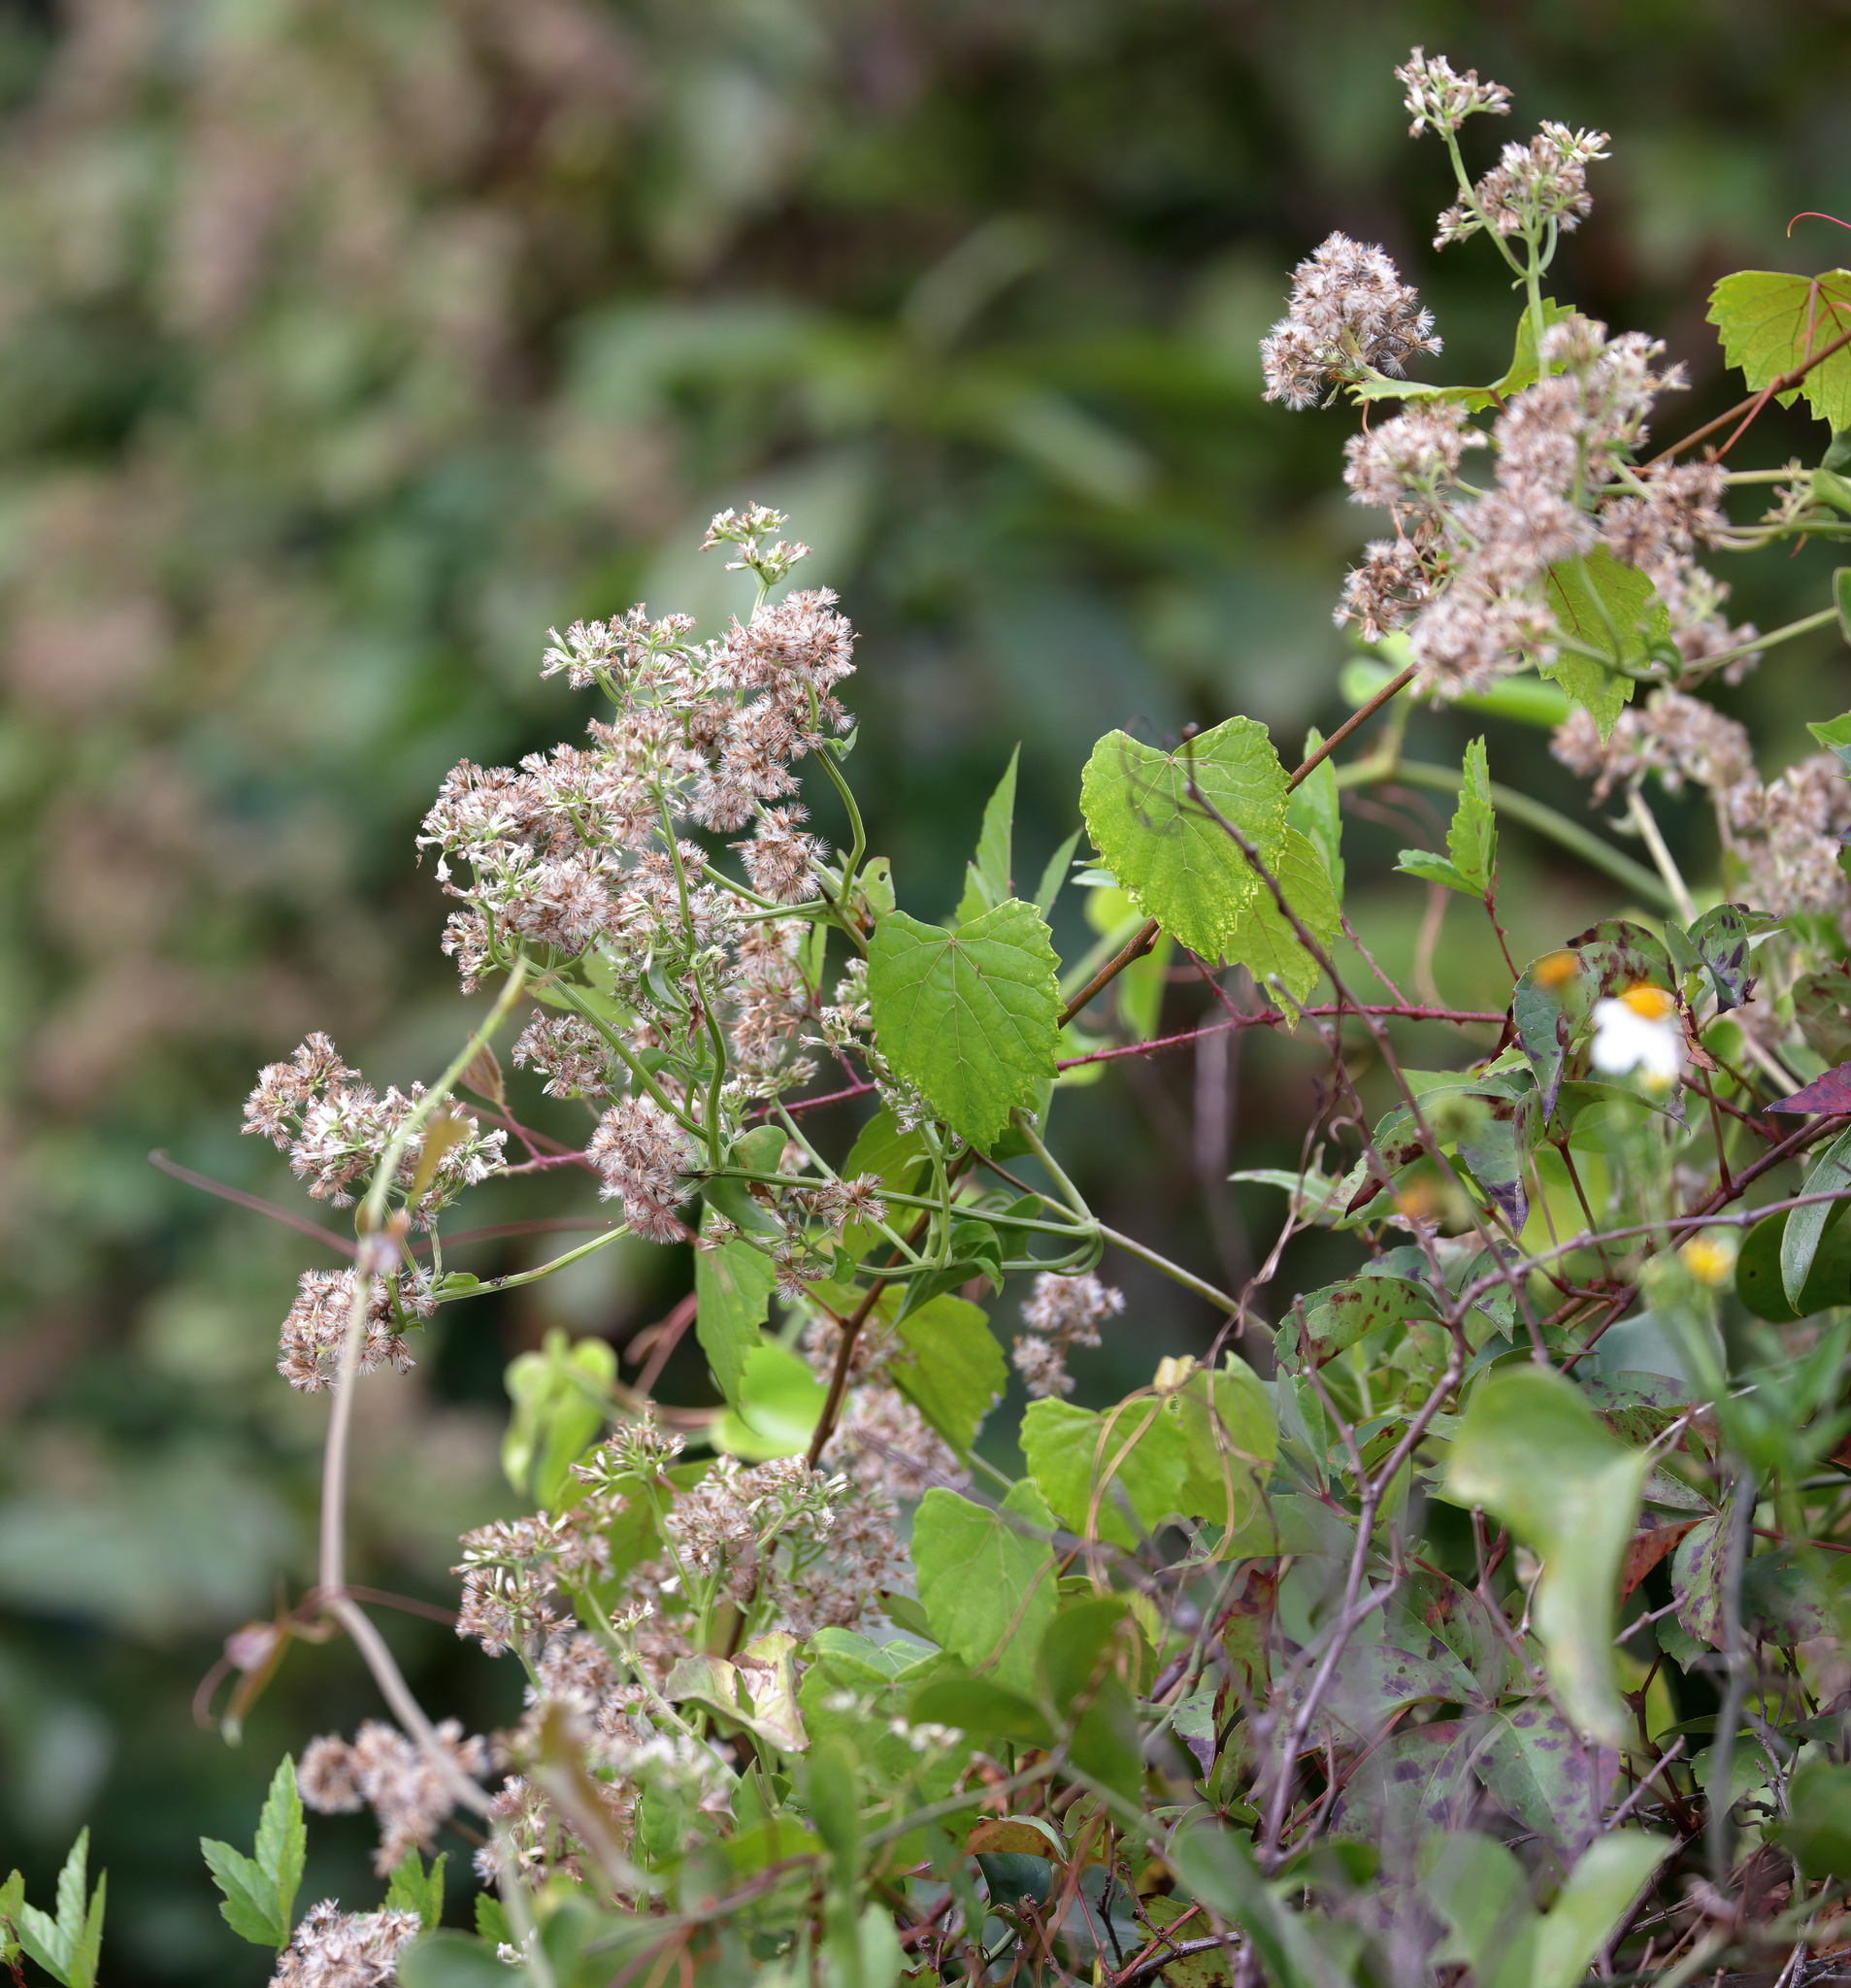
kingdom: Plantae
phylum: Tracheophyta
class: Magnoliopsida
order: Asterales
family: Asteraceae
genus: Mikania
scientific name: Mikania scandens
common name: Climbing hempvine
